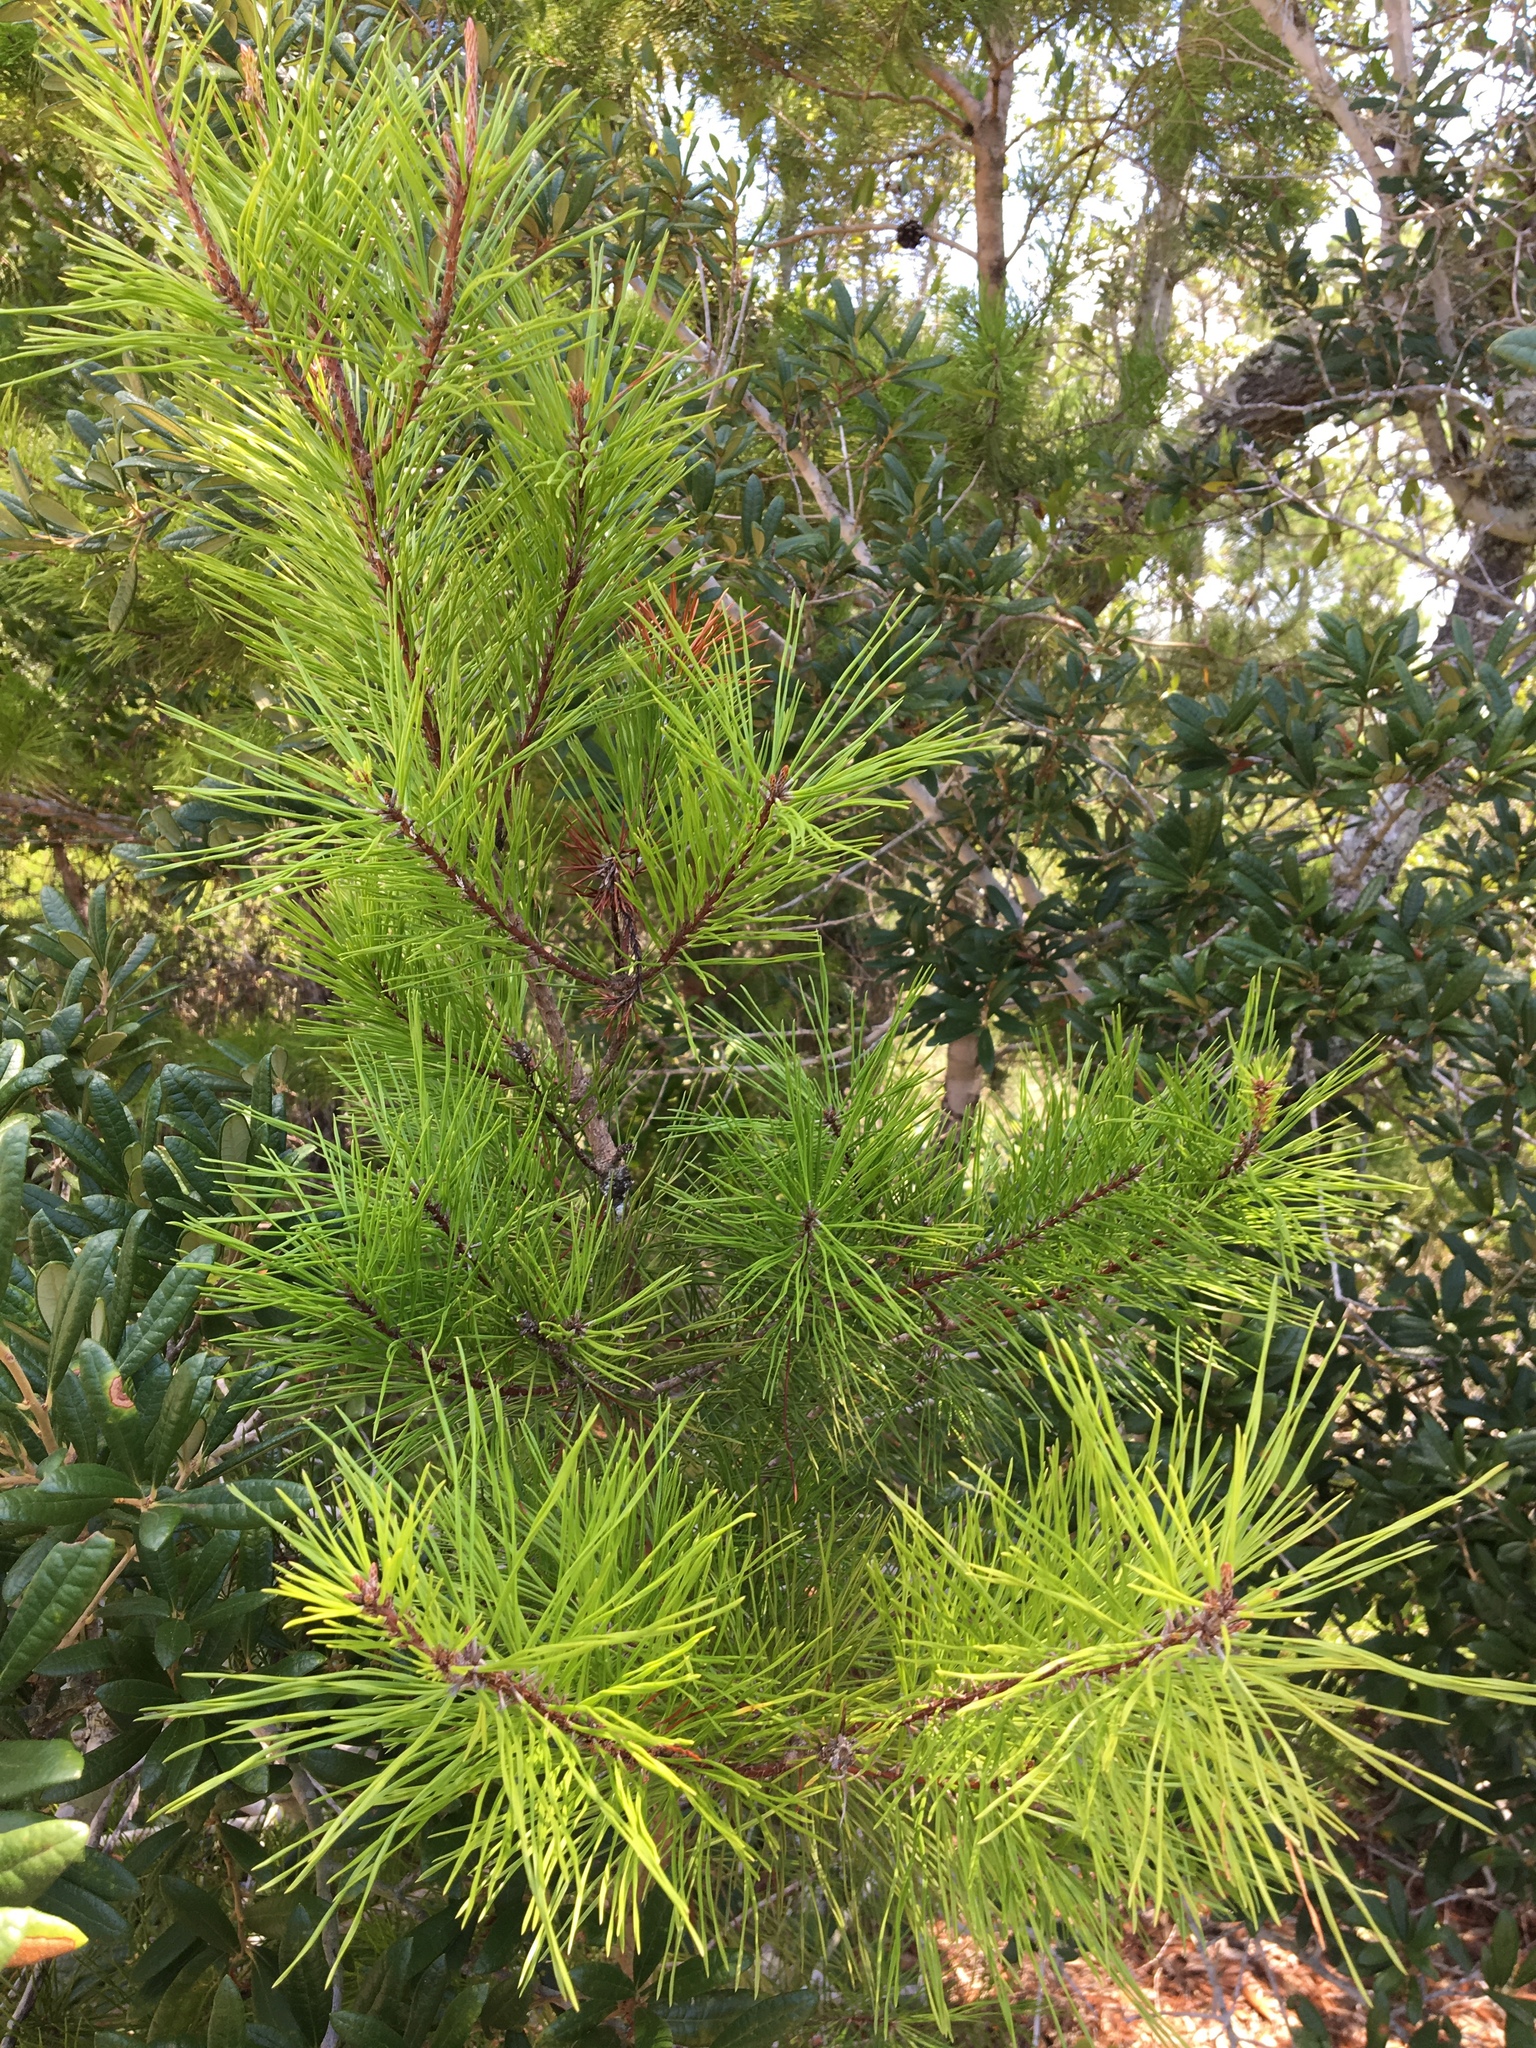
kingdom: Plantae
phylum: Tracheophyta
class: Pinopsida
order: Pinales
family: Pinaceae
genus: Pinus
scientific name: Pinus clausa
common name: Sand pine
